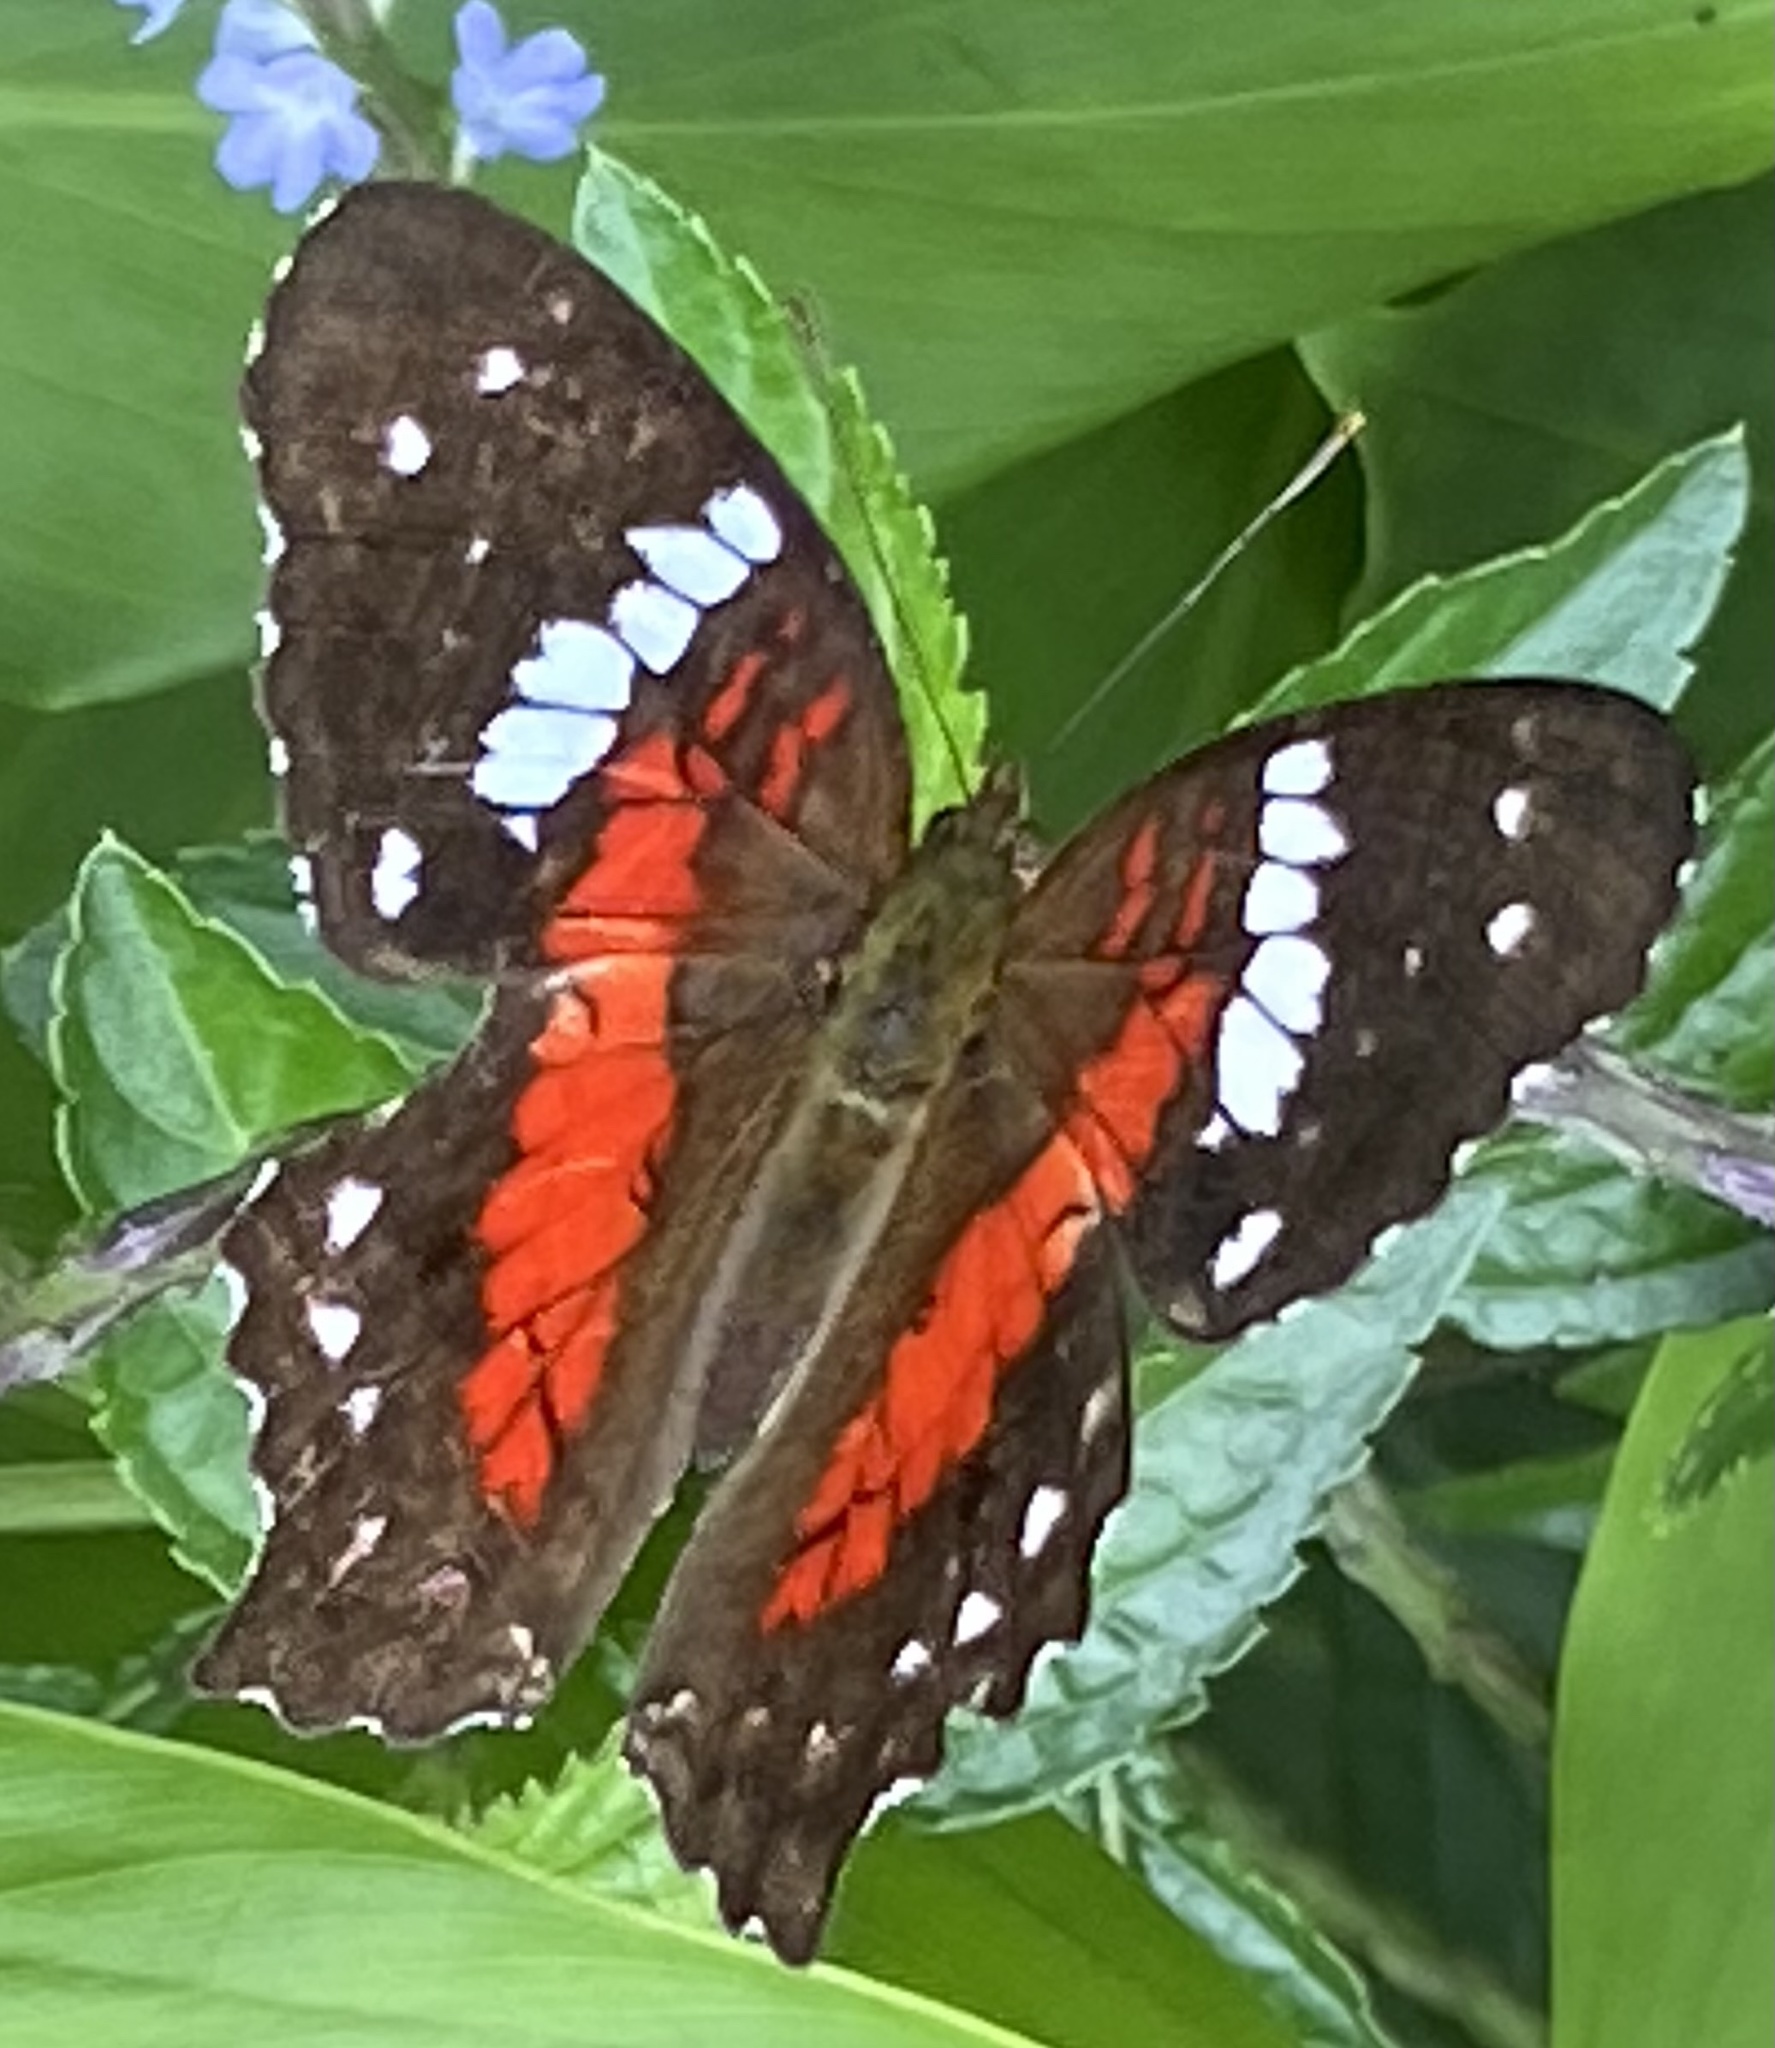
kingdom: Animalia
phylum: Arthropoda
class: Insecta
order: Lepidoptera
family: Nymphalidae
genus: Anartia
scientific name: Anartia amathea
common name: Red peacock
